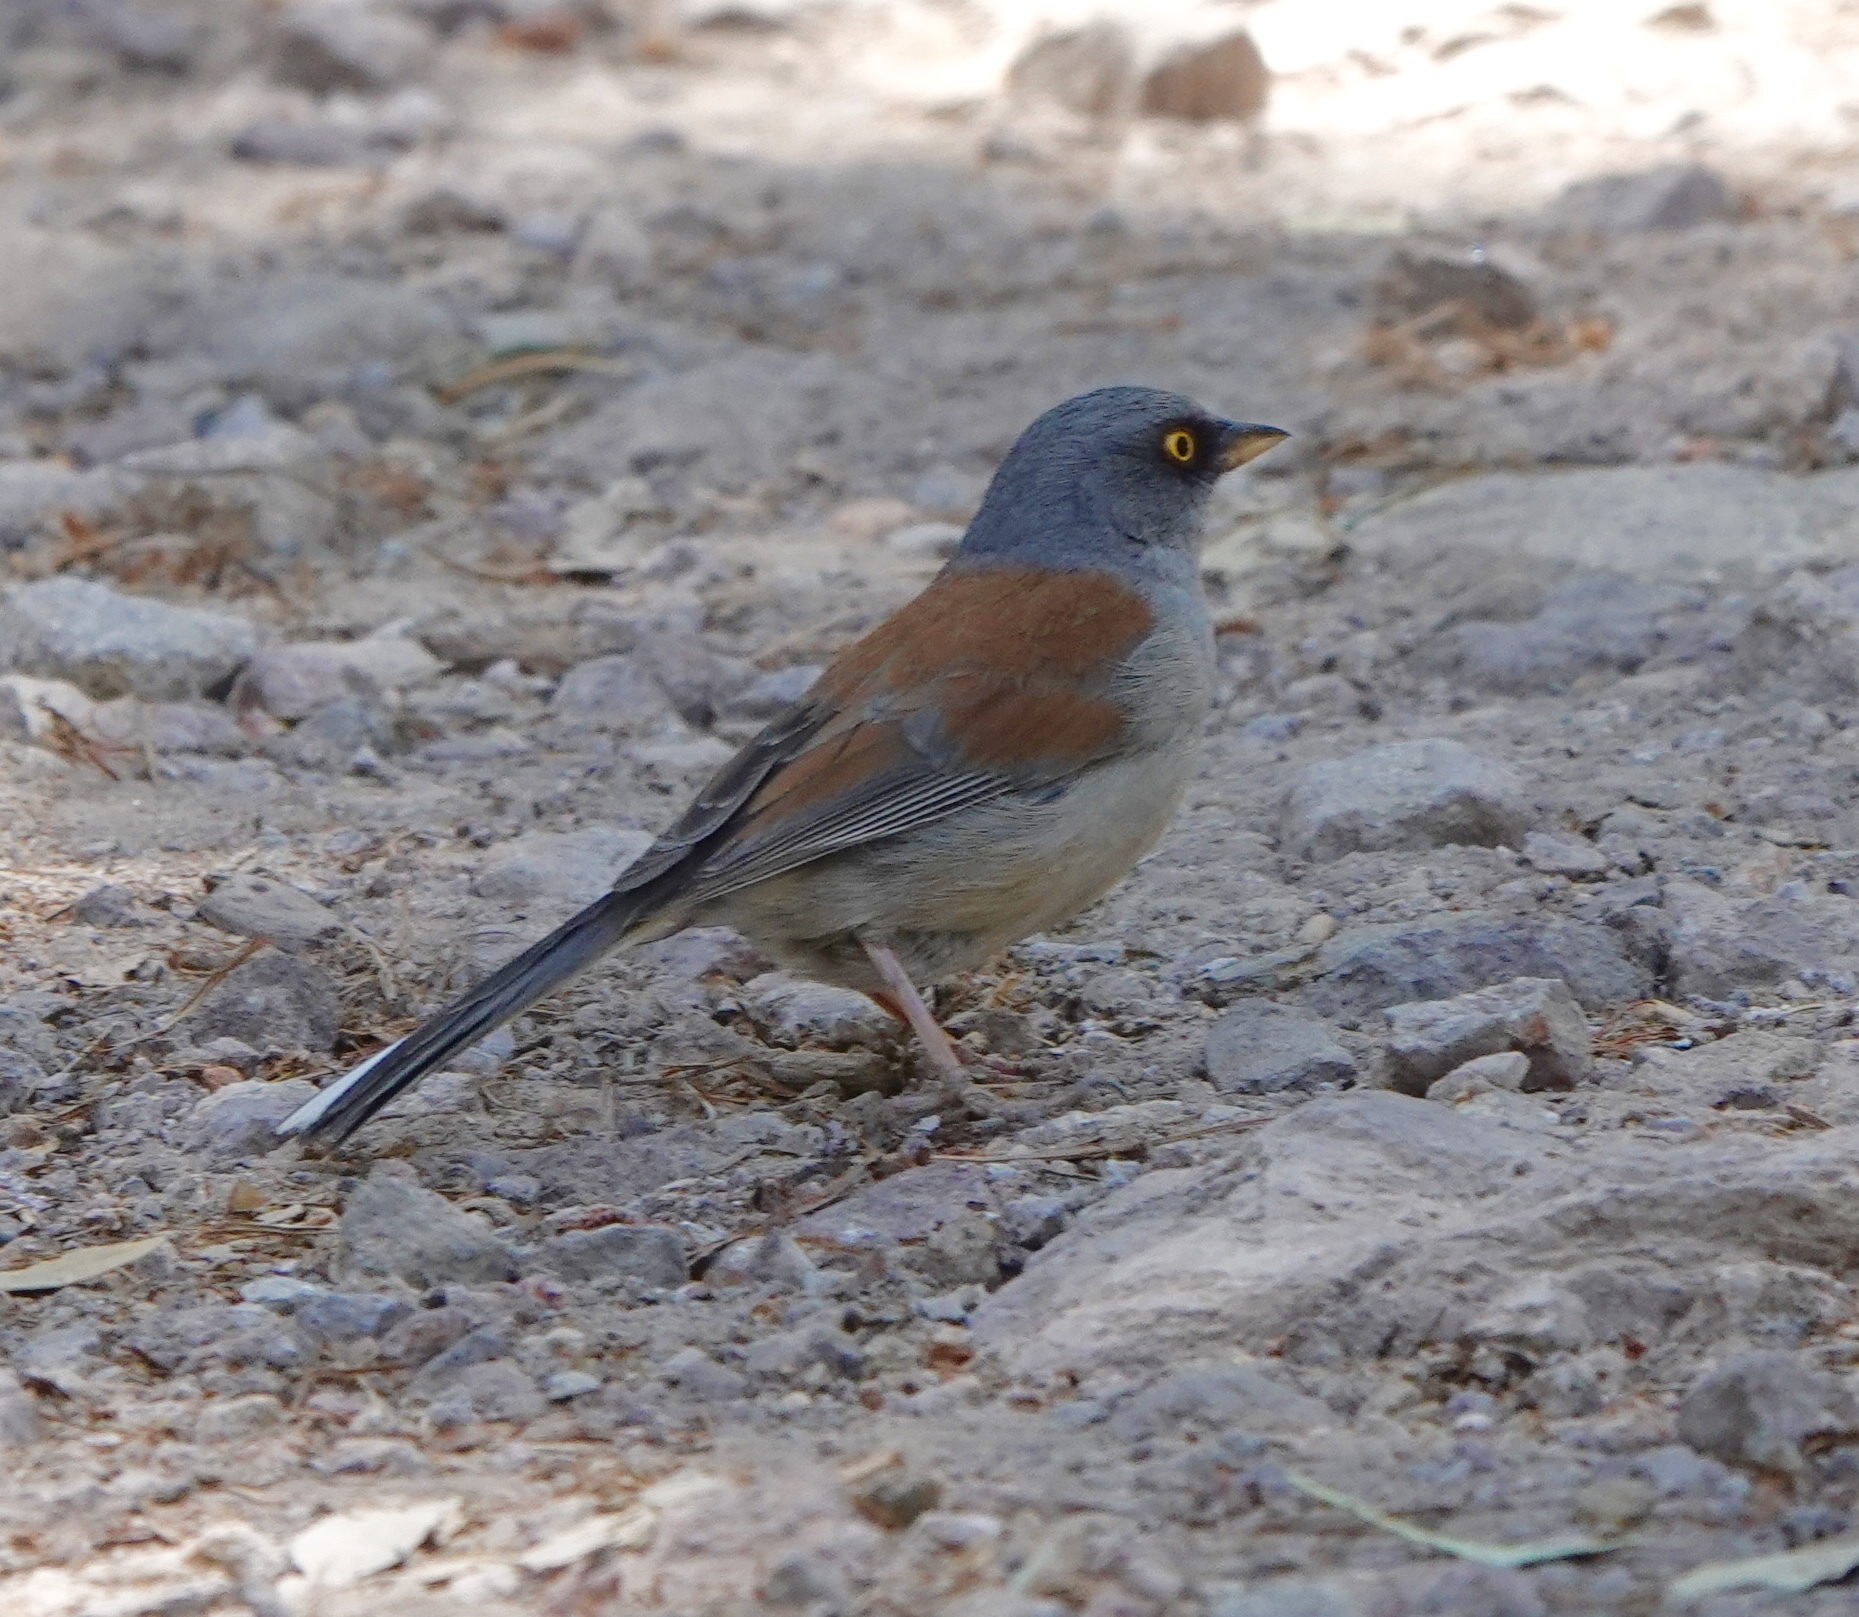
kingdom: Animalia
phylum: Chordata
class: Aves
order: Passeriformes
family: Passerellidae
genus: Junco
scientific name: Junco phaeonotus
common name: Yellow-eyed junco
